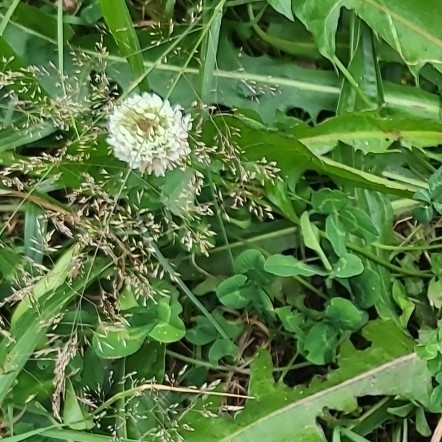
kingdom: Plantae
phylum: Tracheophyta
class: Magnoliopsida
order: Fabales
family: Fabaceae
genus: Trifolium
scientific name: Trifolium repens
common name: White clover
